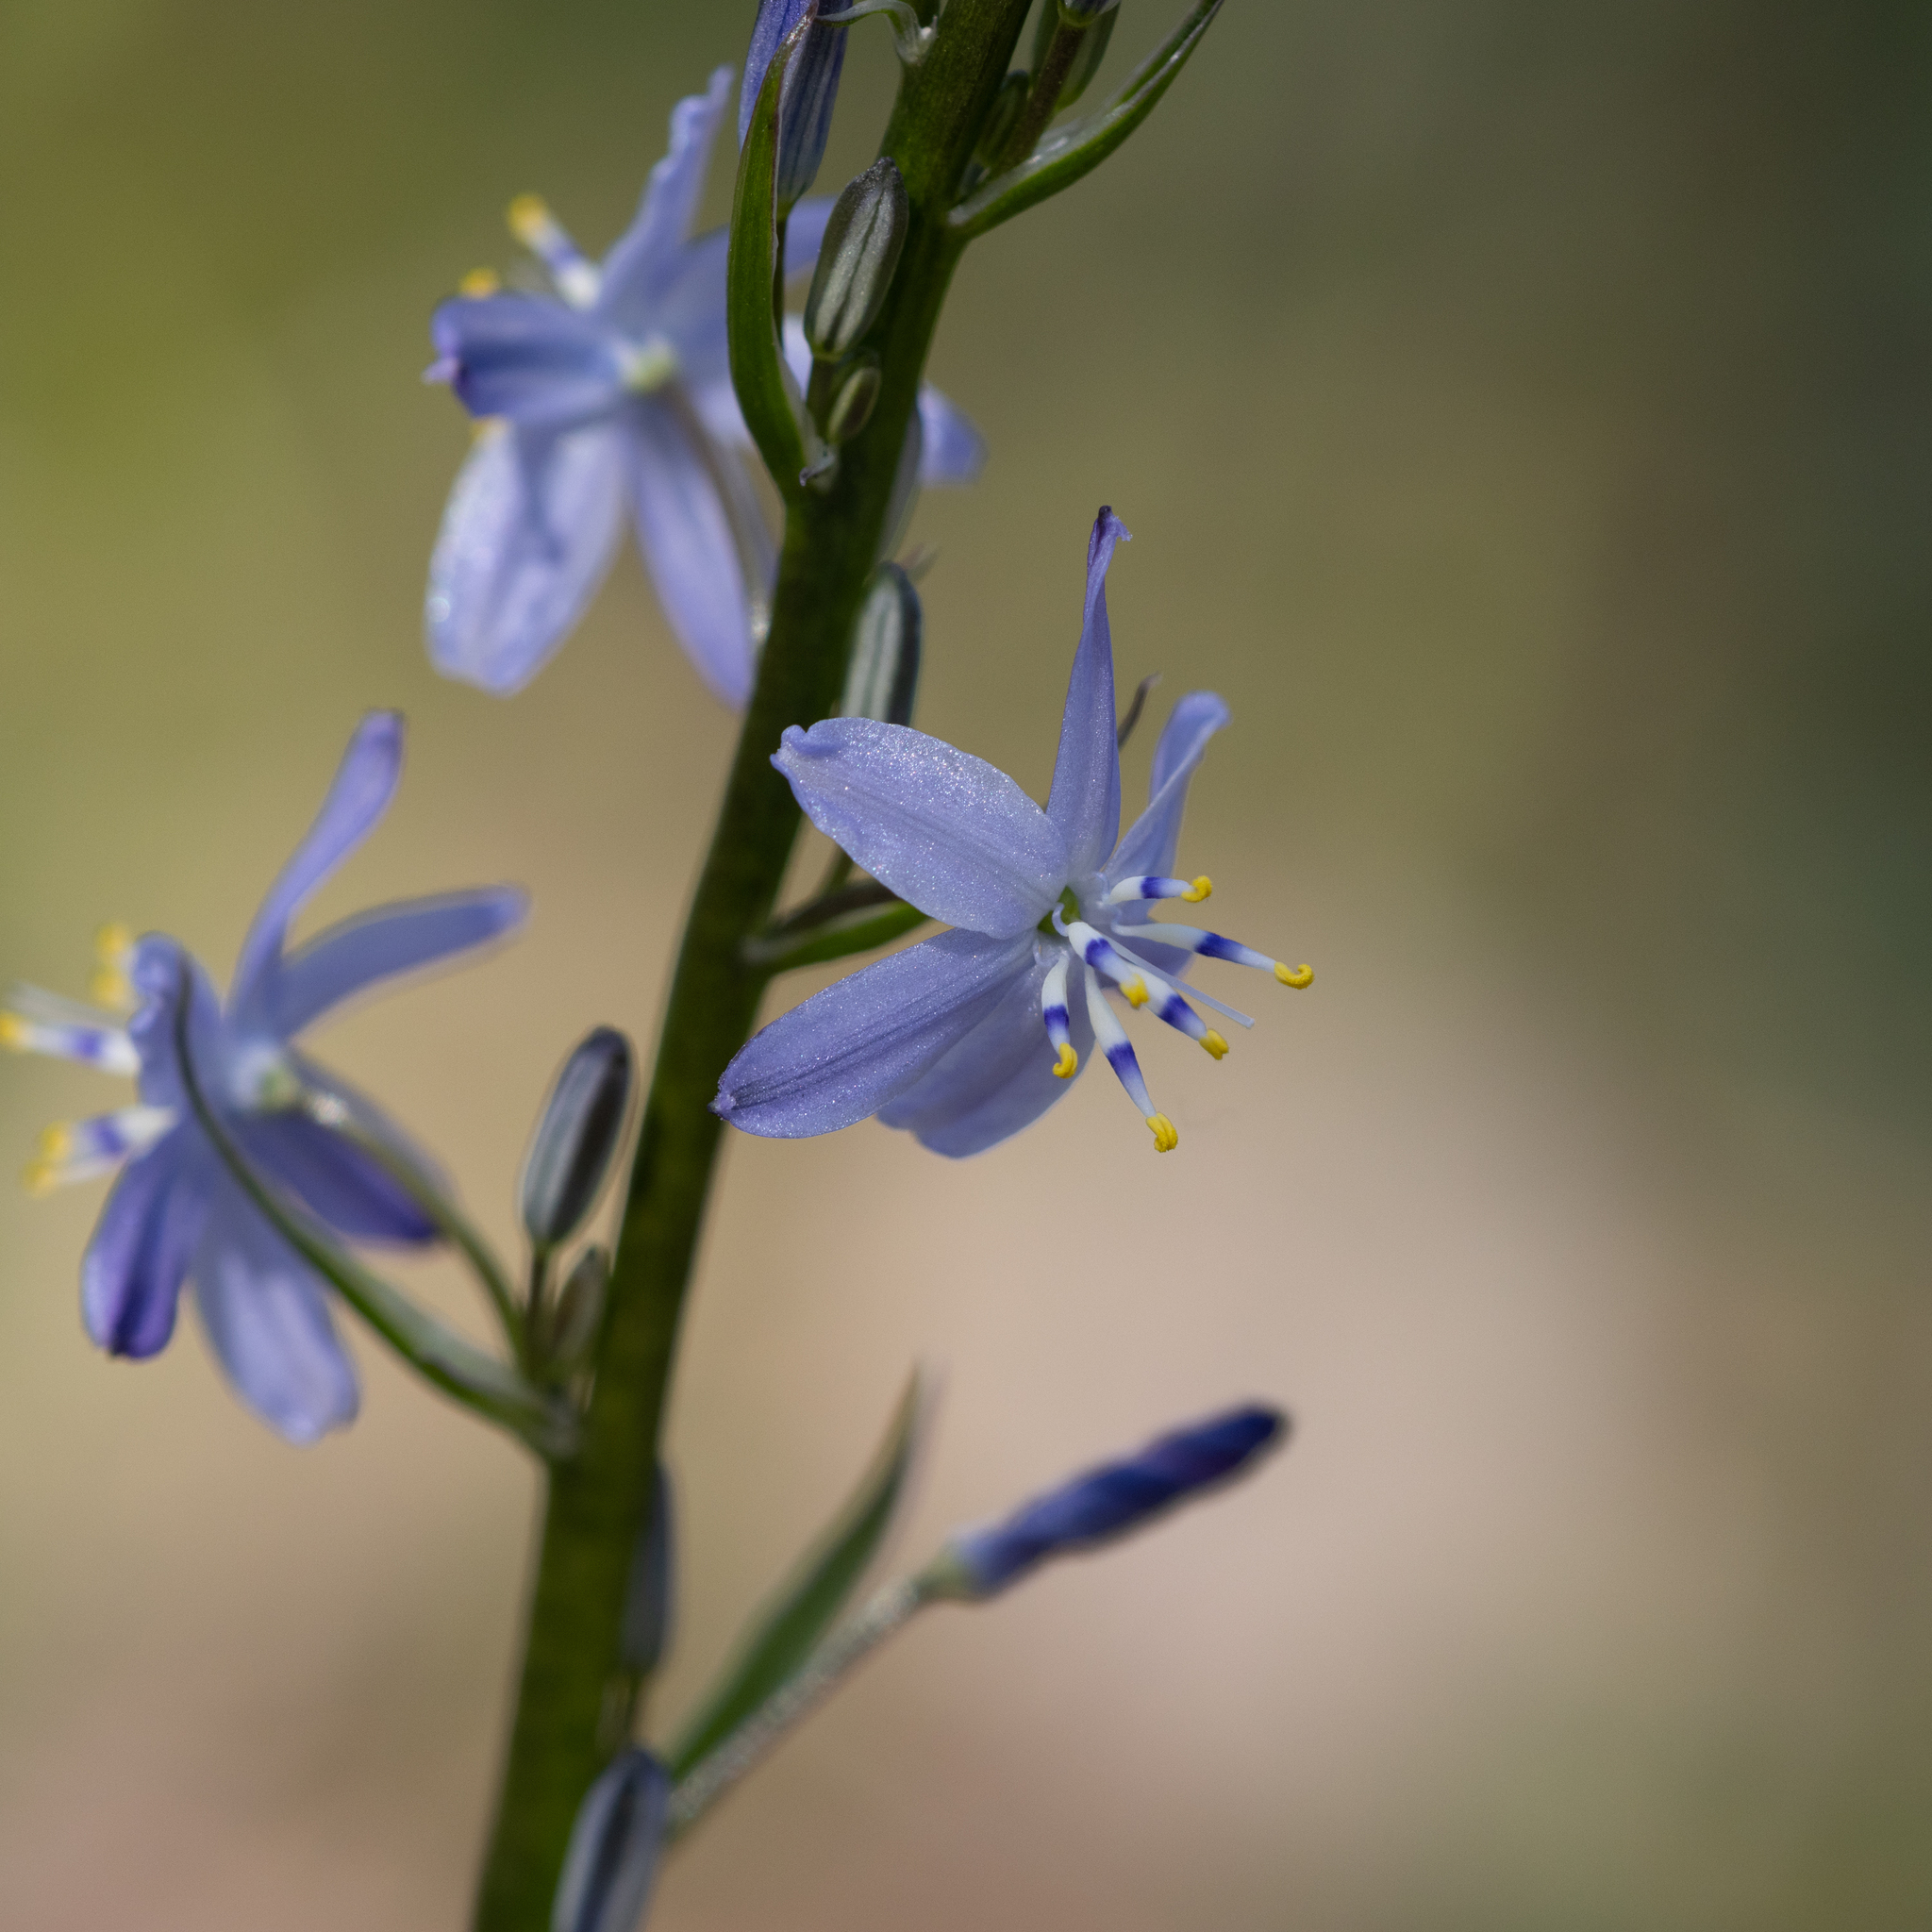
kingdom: Plantae
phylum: Tracheophyta
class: Liliopsida
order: Asparagales
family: Asphodelaceae
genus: Caesia
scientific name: Caesia calliantha
